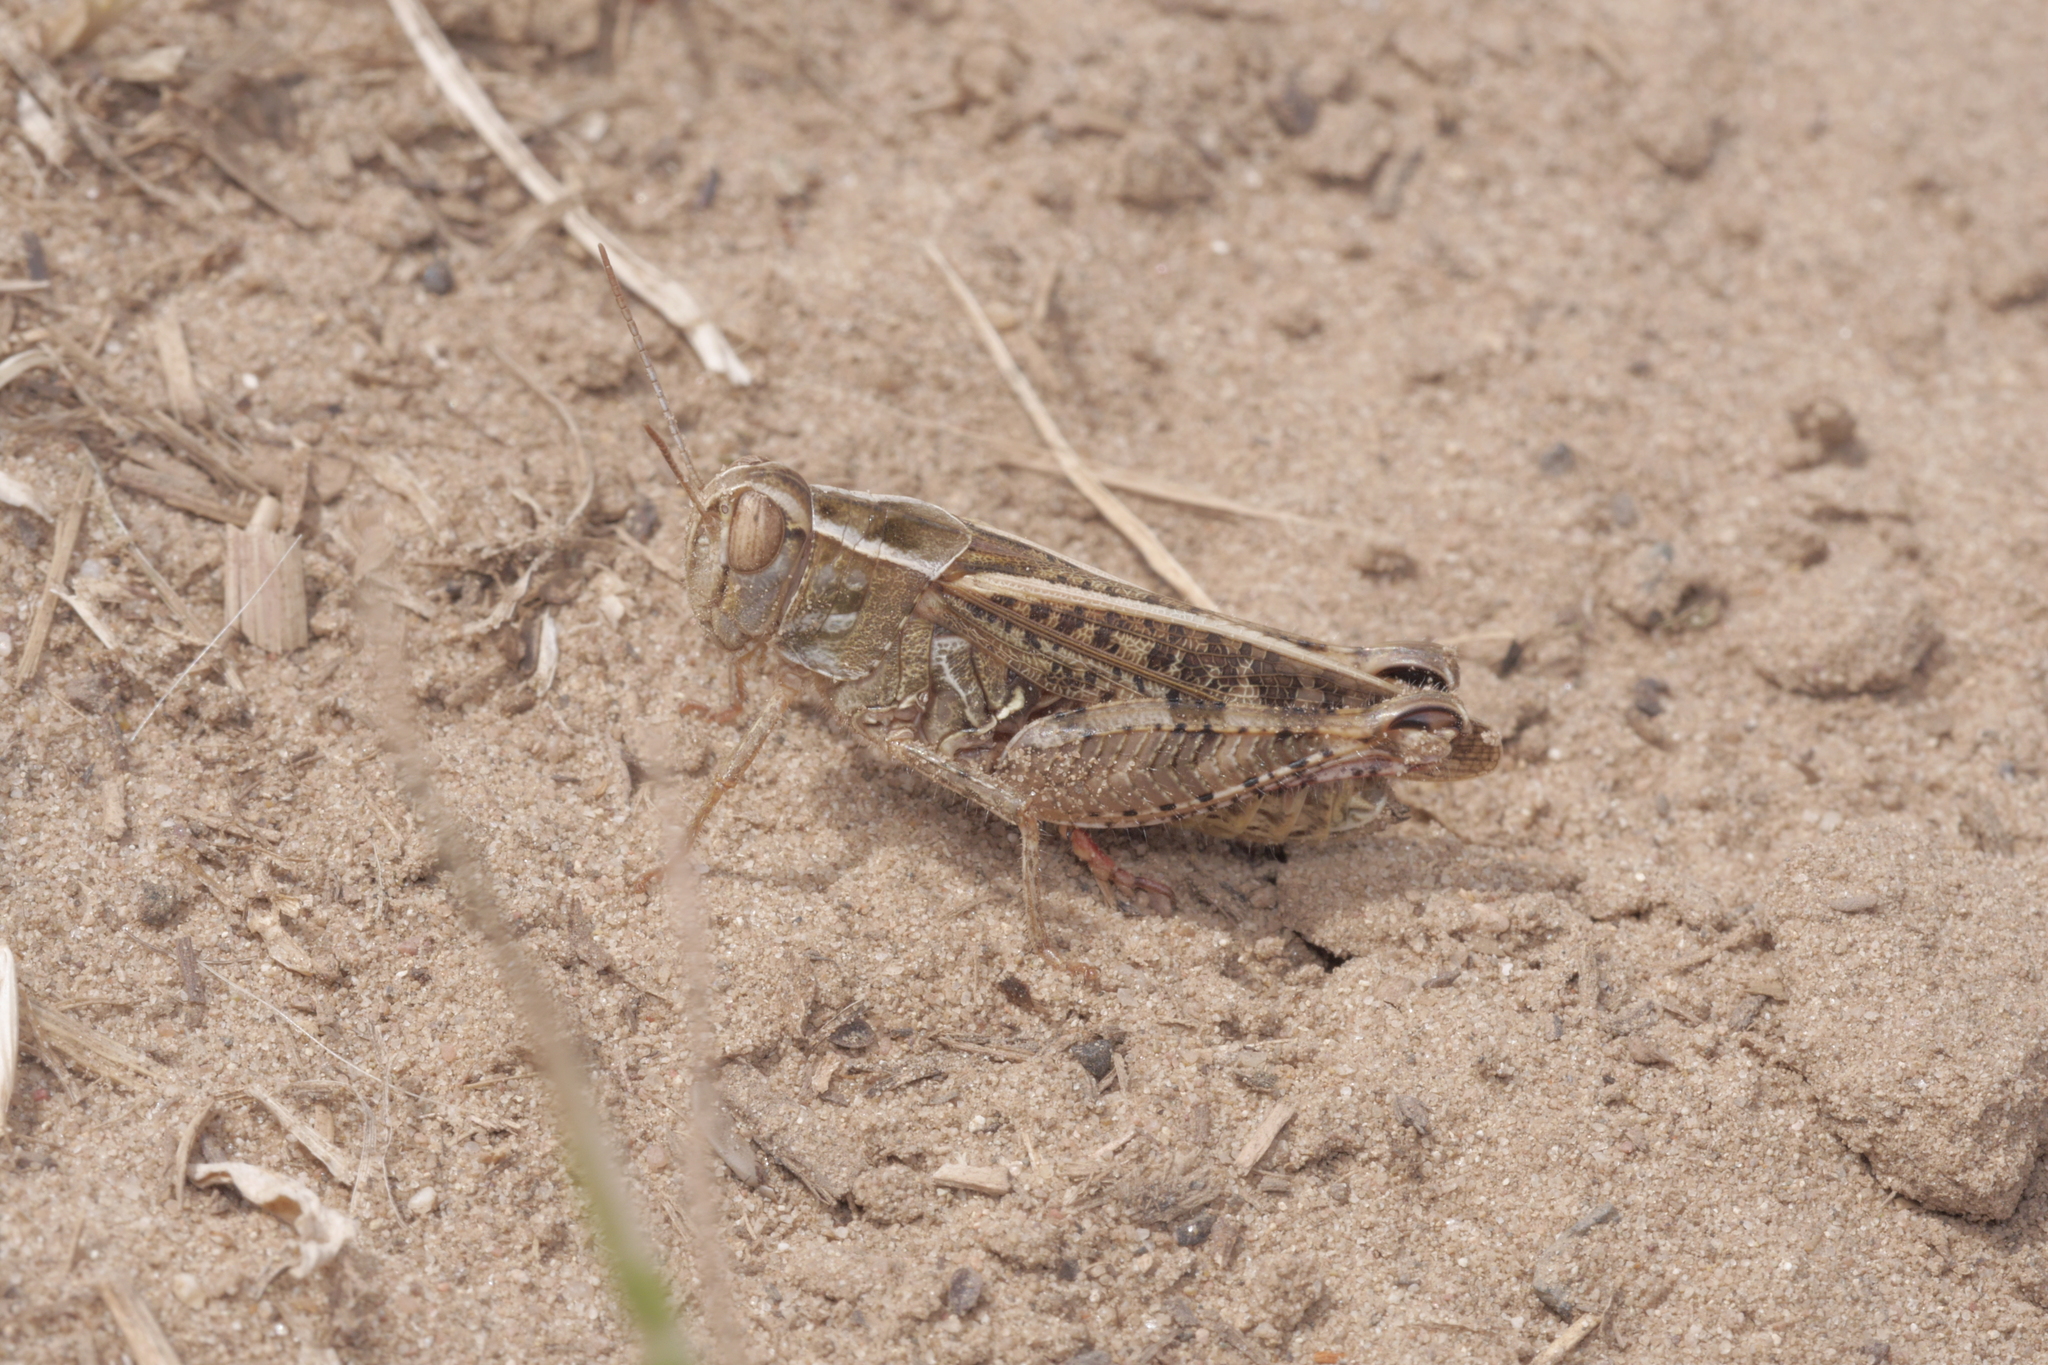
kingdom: Animalia
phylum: Arthropoda
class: Insecta
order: Orthoptera
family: Acrididae
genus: Calliptamus
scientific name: Calliptamus italicus
